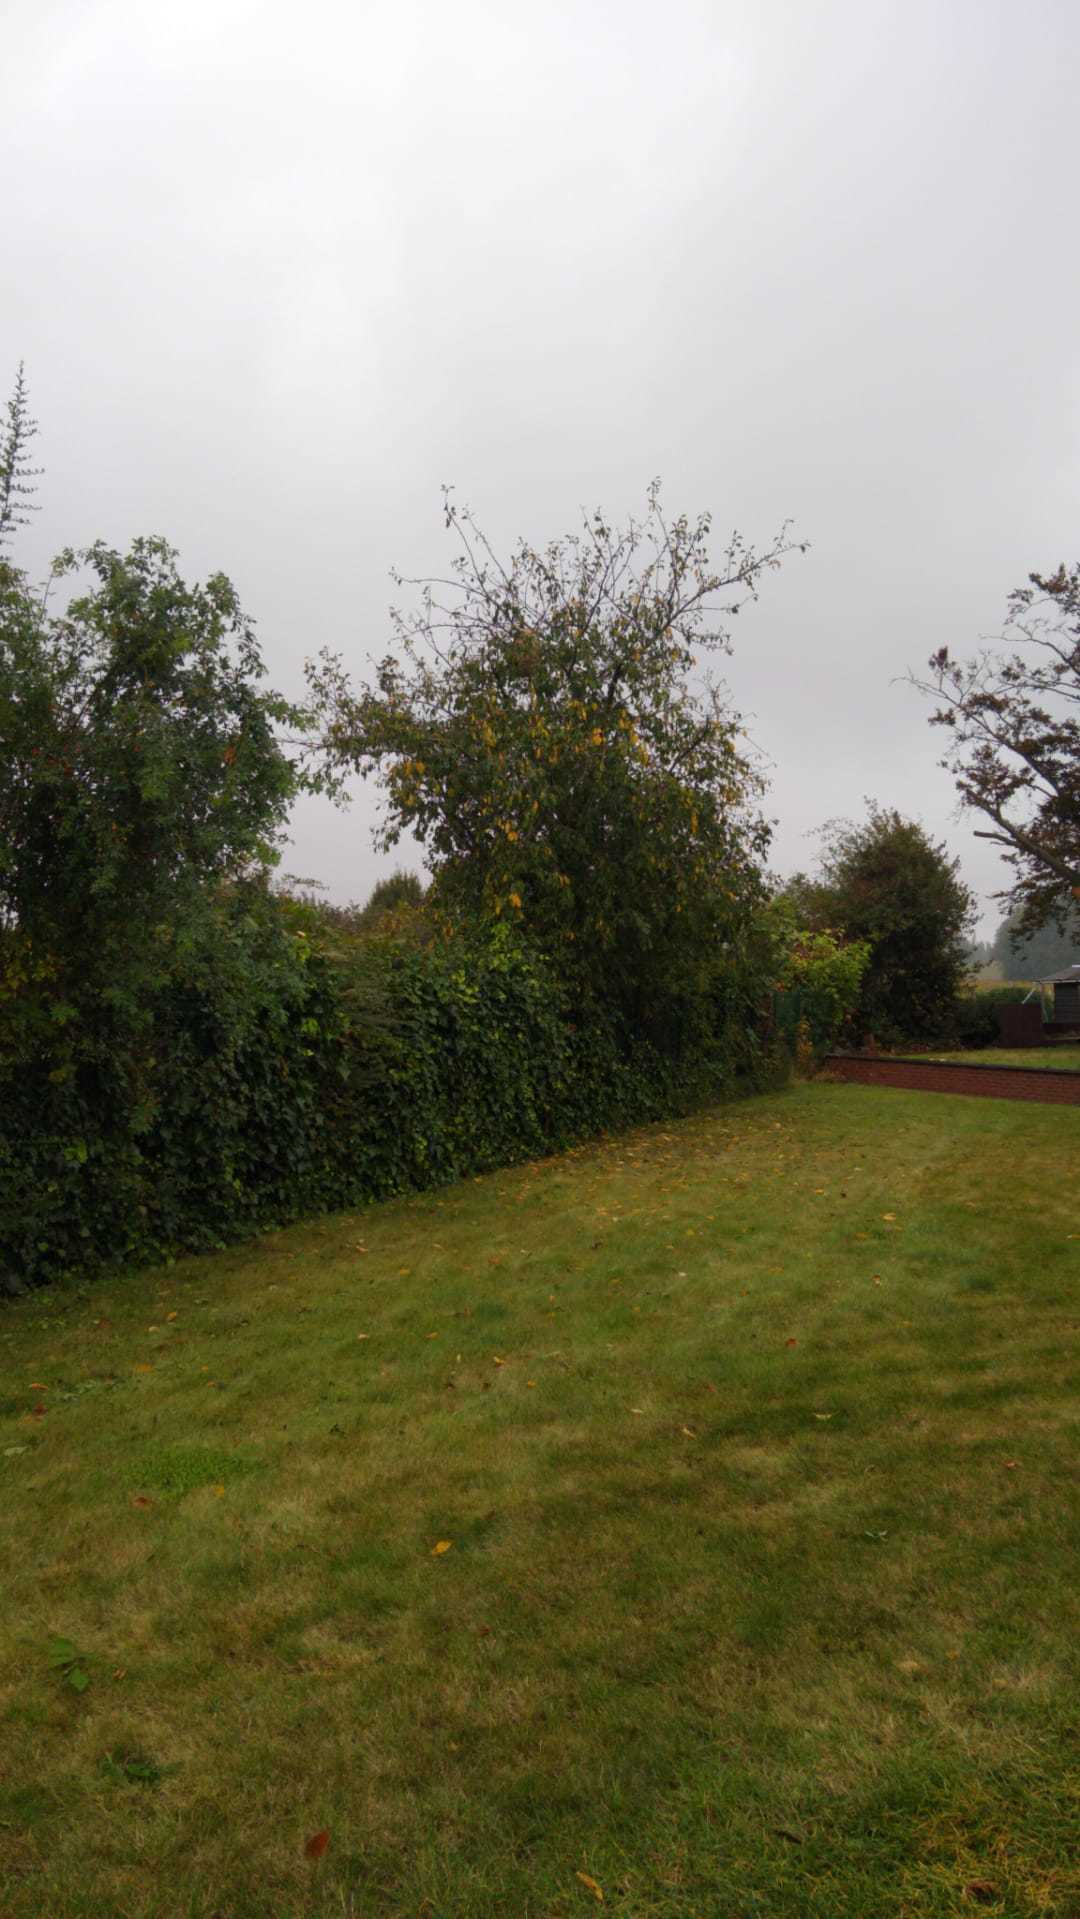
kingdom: Animalia
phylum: Arthropoda
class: Insecta
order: Hymenoptera
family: Vespidae
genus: Vespa
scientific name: Vespa velutina
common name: Asian hornet
